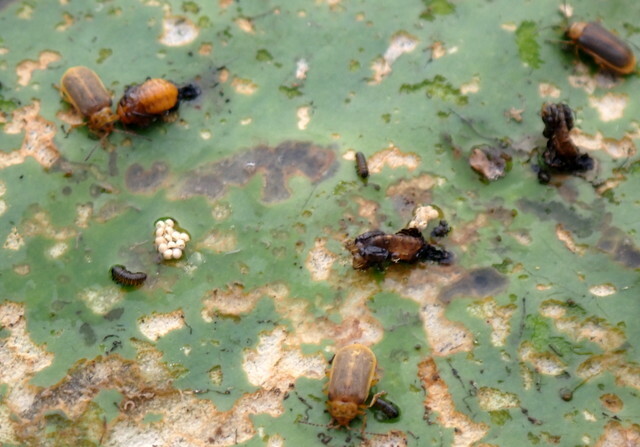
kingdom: Animalia
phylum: Arthropoda
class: Insecta
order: Coleoptera
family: Chrysomelidae
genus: Galerucella
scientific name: Galerucella nymphaeae
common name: Leaf beetle
